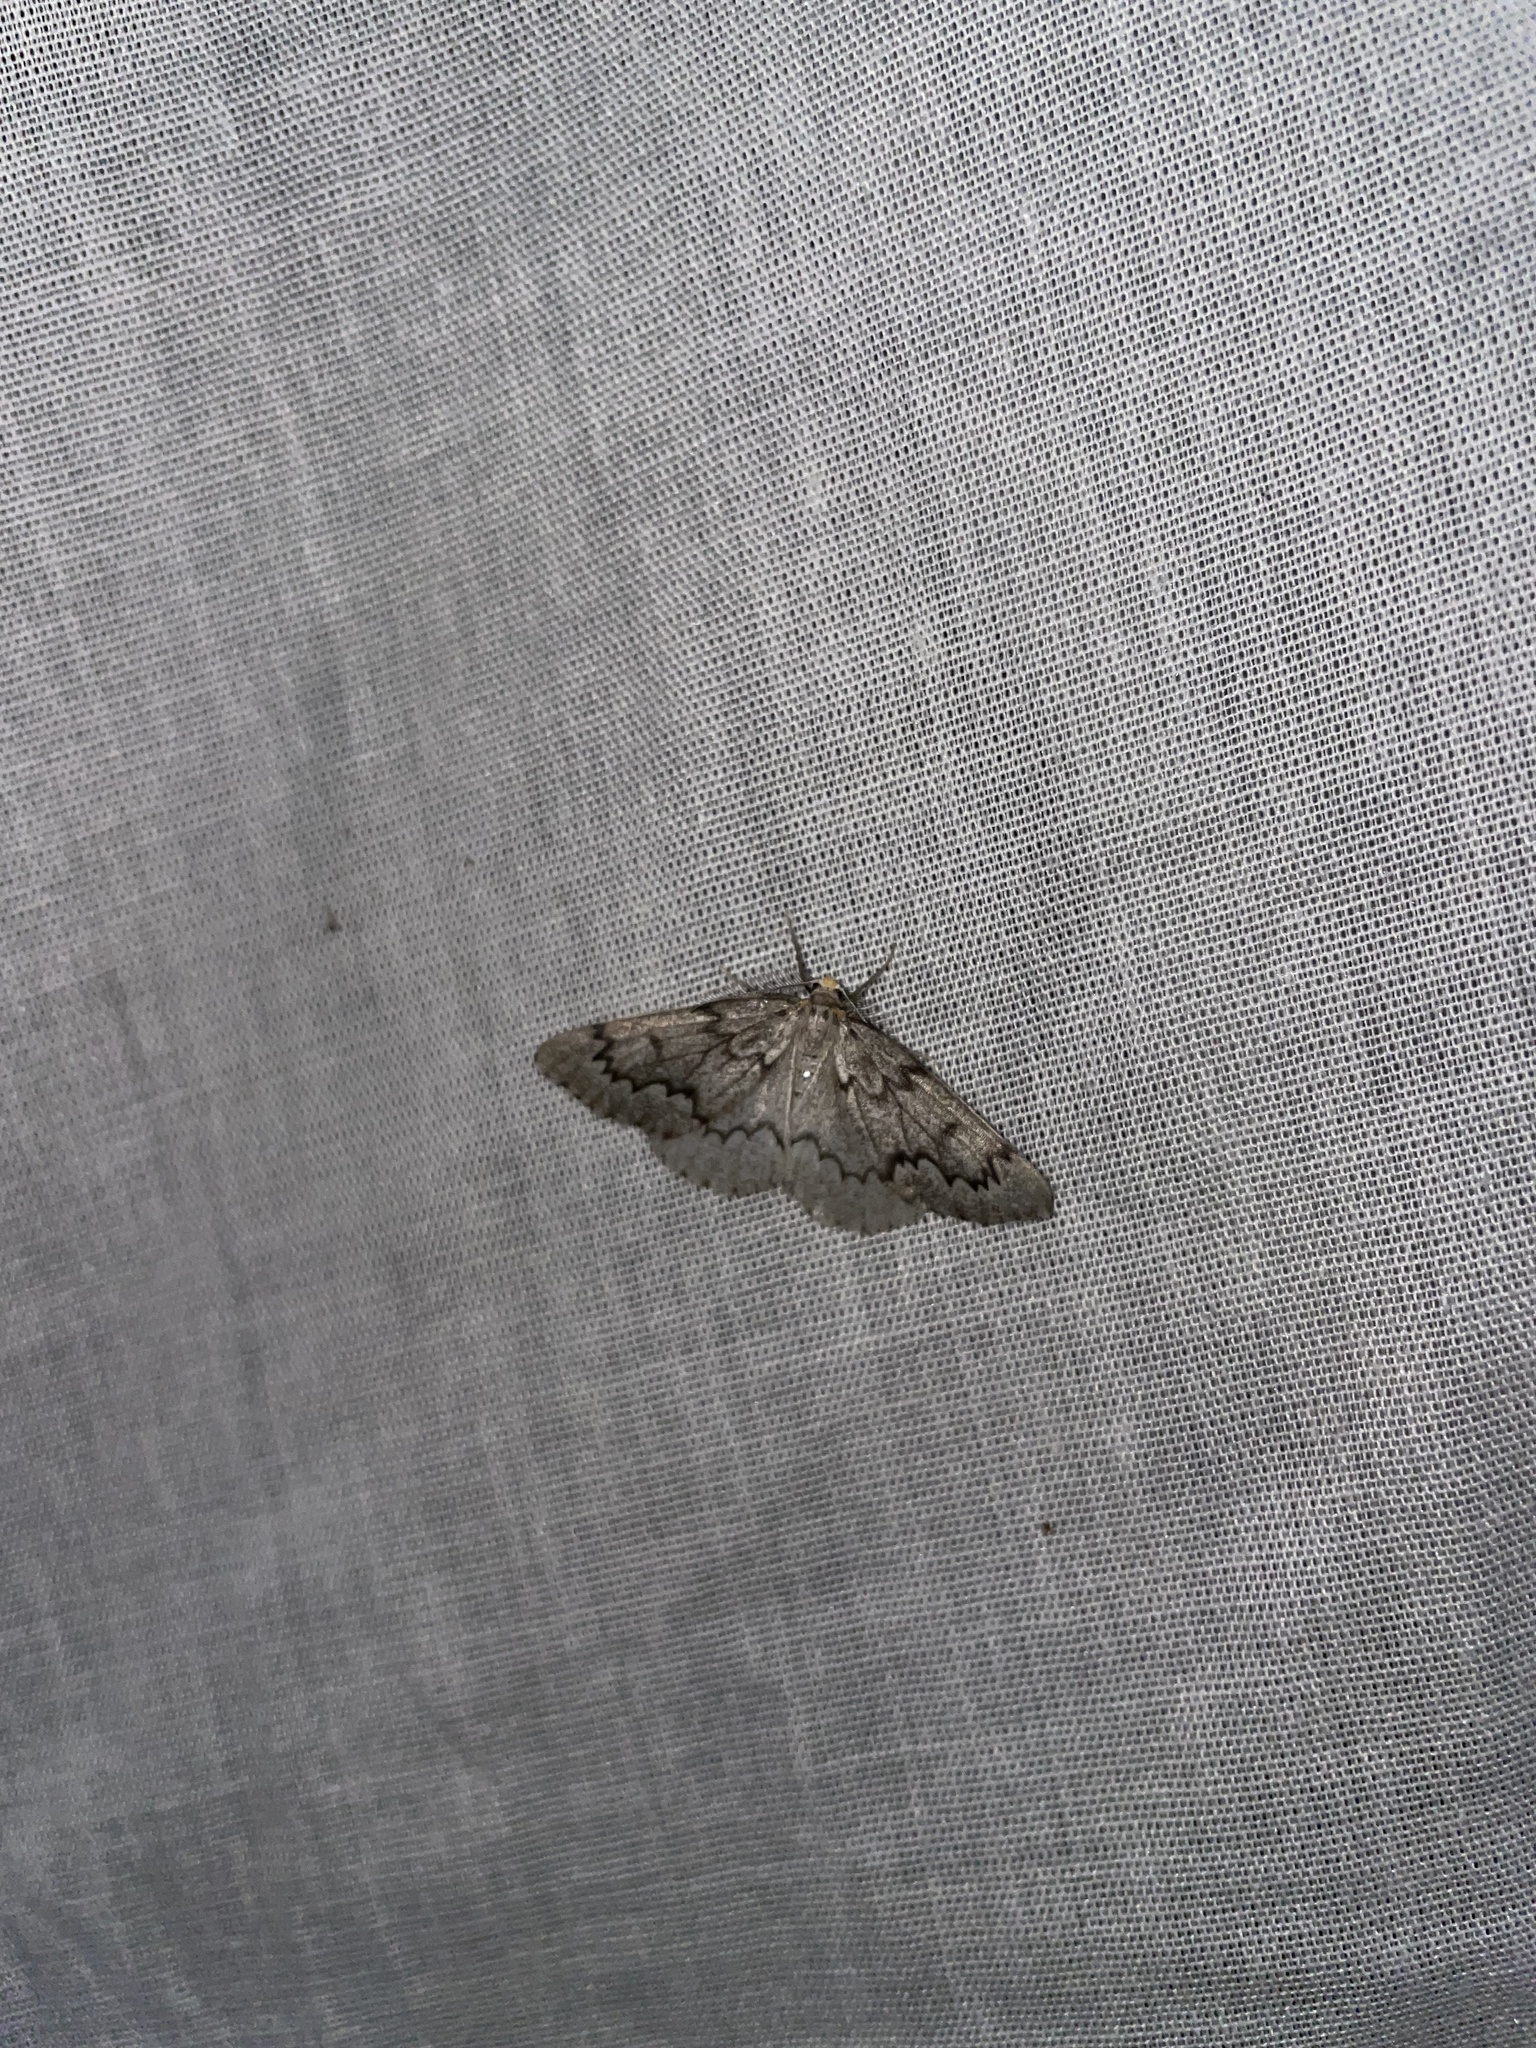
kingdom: Animalia
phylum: Arthropoda
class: Insecta
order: Lepidoptera
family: Geometridae
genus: Nepytia
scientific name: Nepytia canosaria
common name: False hemlock looper
